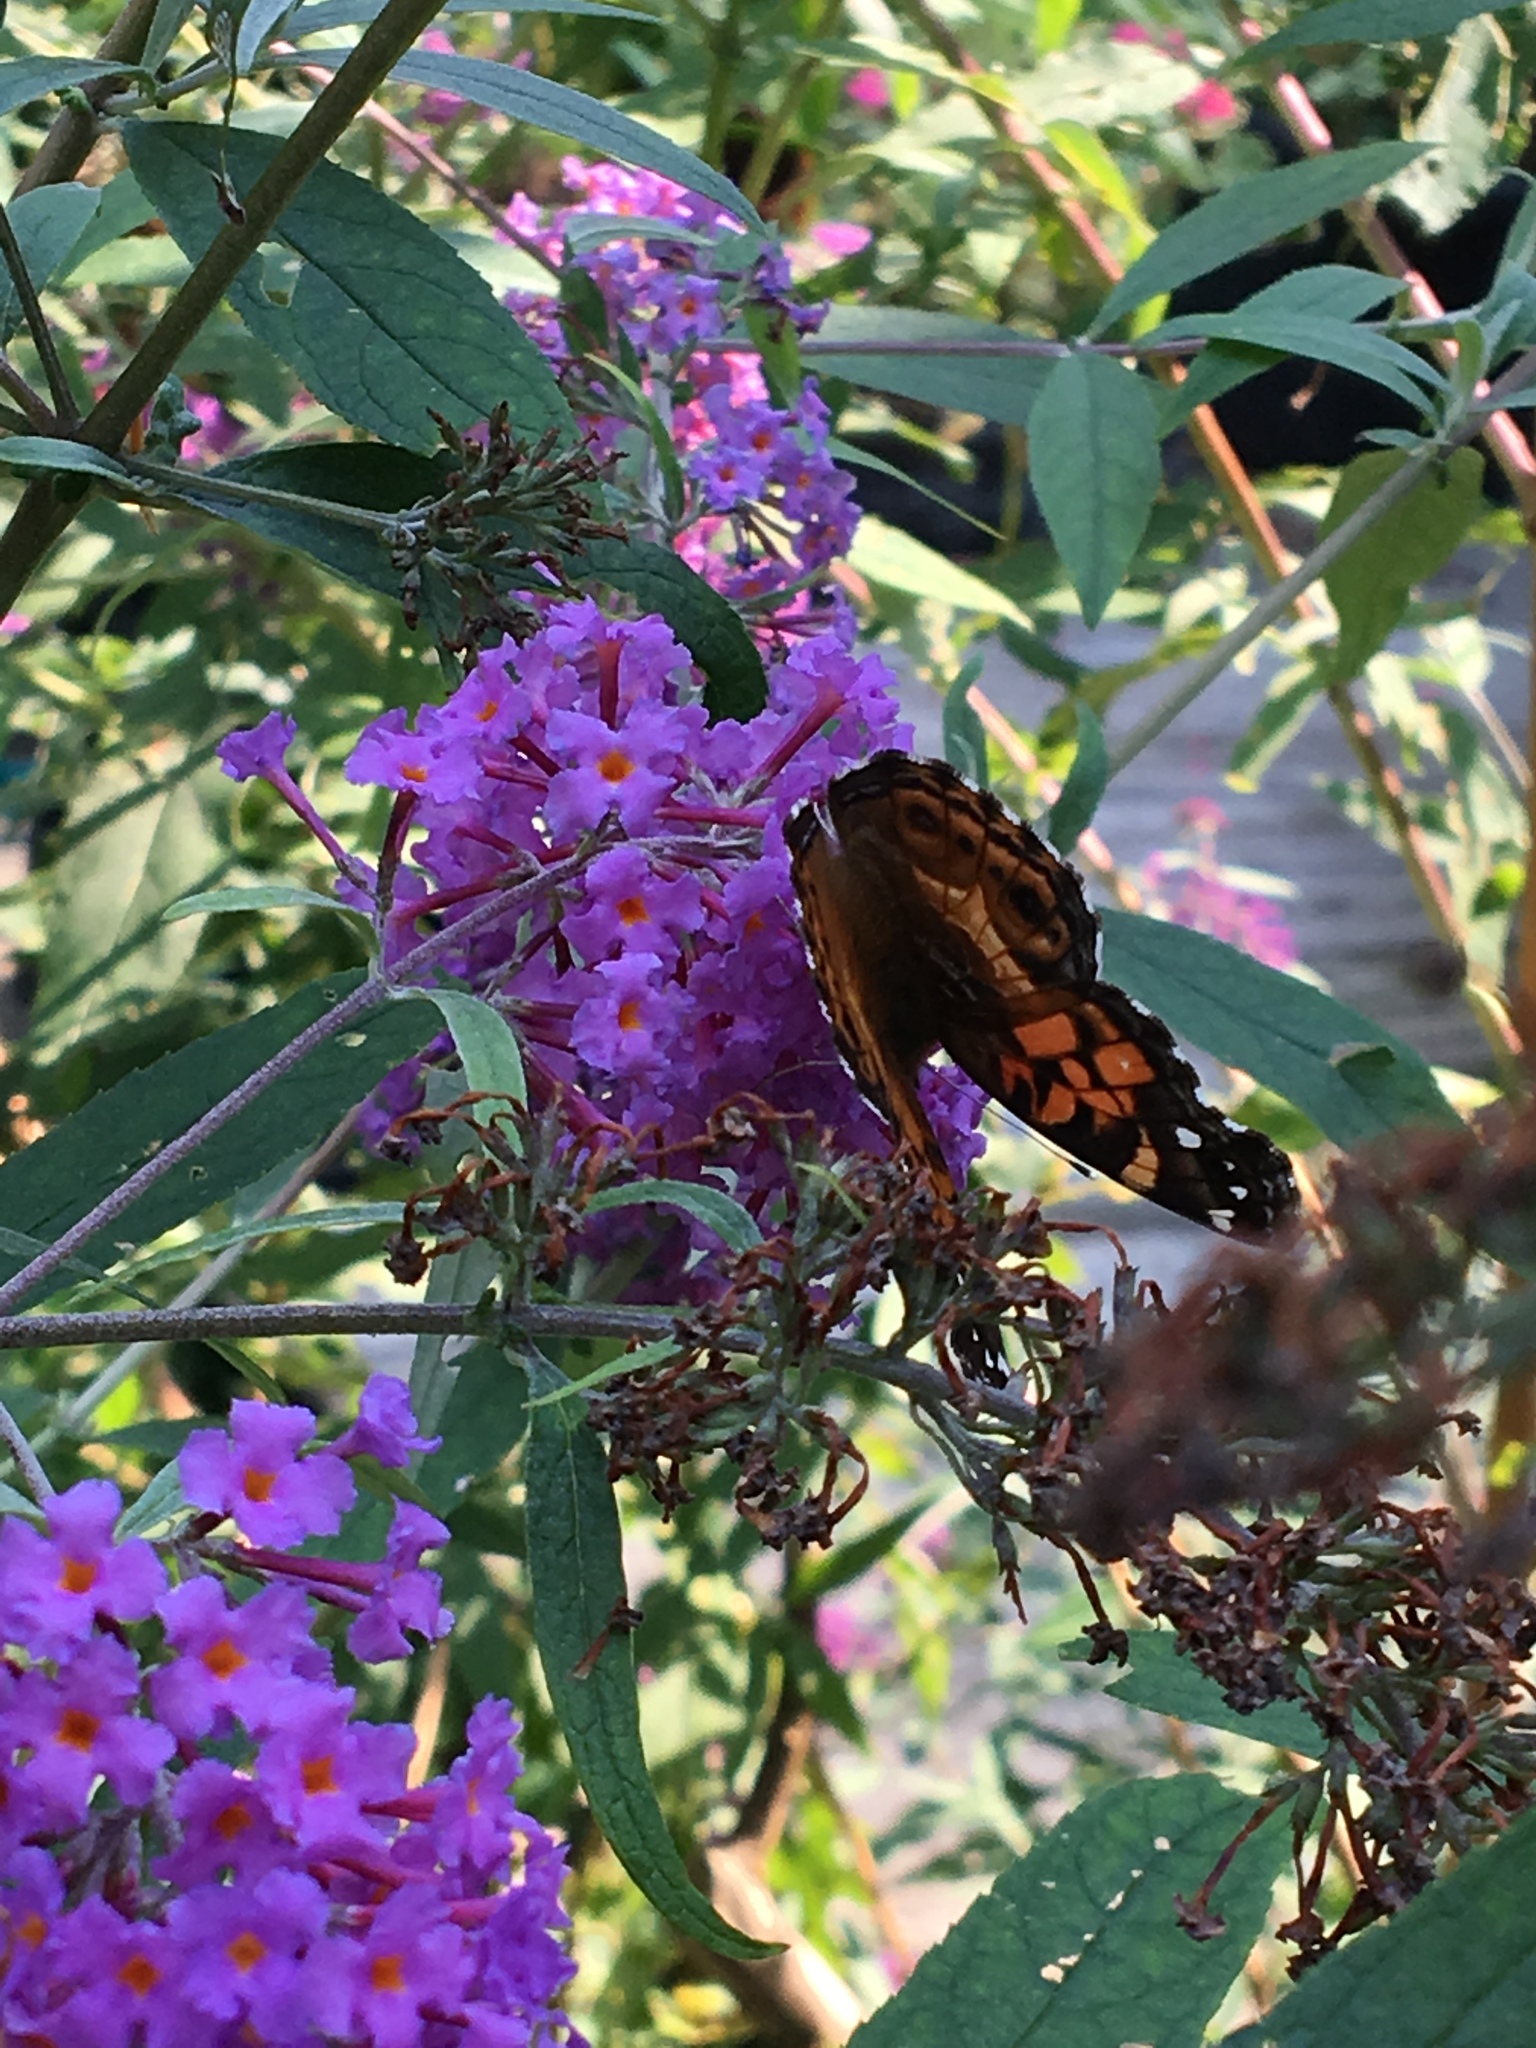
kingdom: Animalia
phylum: Arthropoda
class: Insecta
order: Lepidoptera
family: Nymphalidae
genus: Vanessa
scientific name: Vanessa virginiensis
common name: American lady
